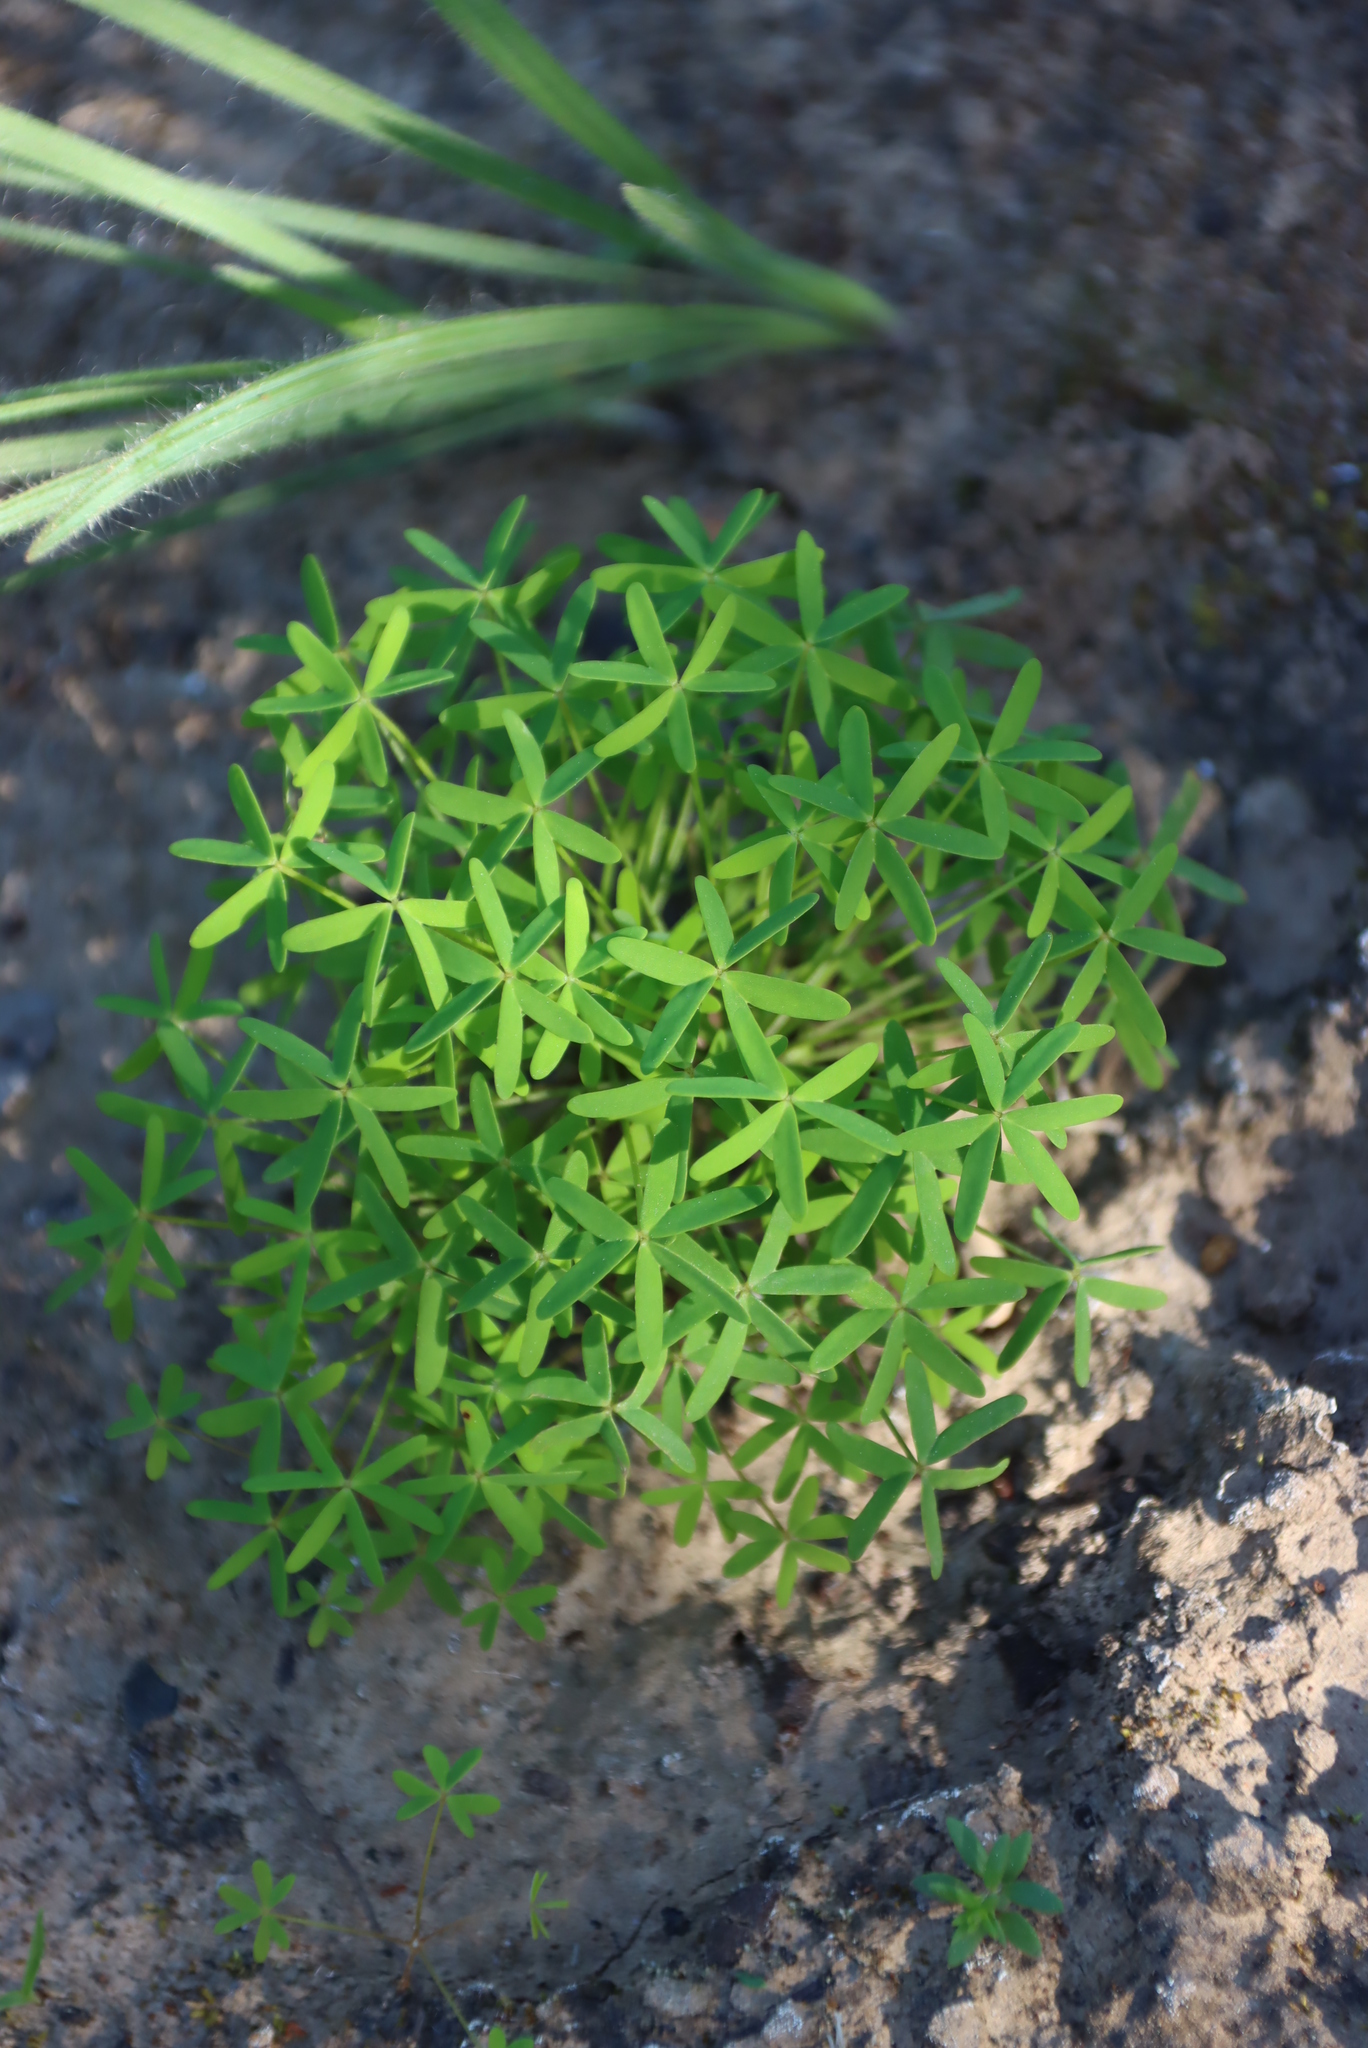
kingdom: Plantae
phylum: Tracheophyta
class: Magnoliopsida
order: Oxalidales
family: Oxalidaceae
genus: Oxalis
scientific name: Oxalis stellata
